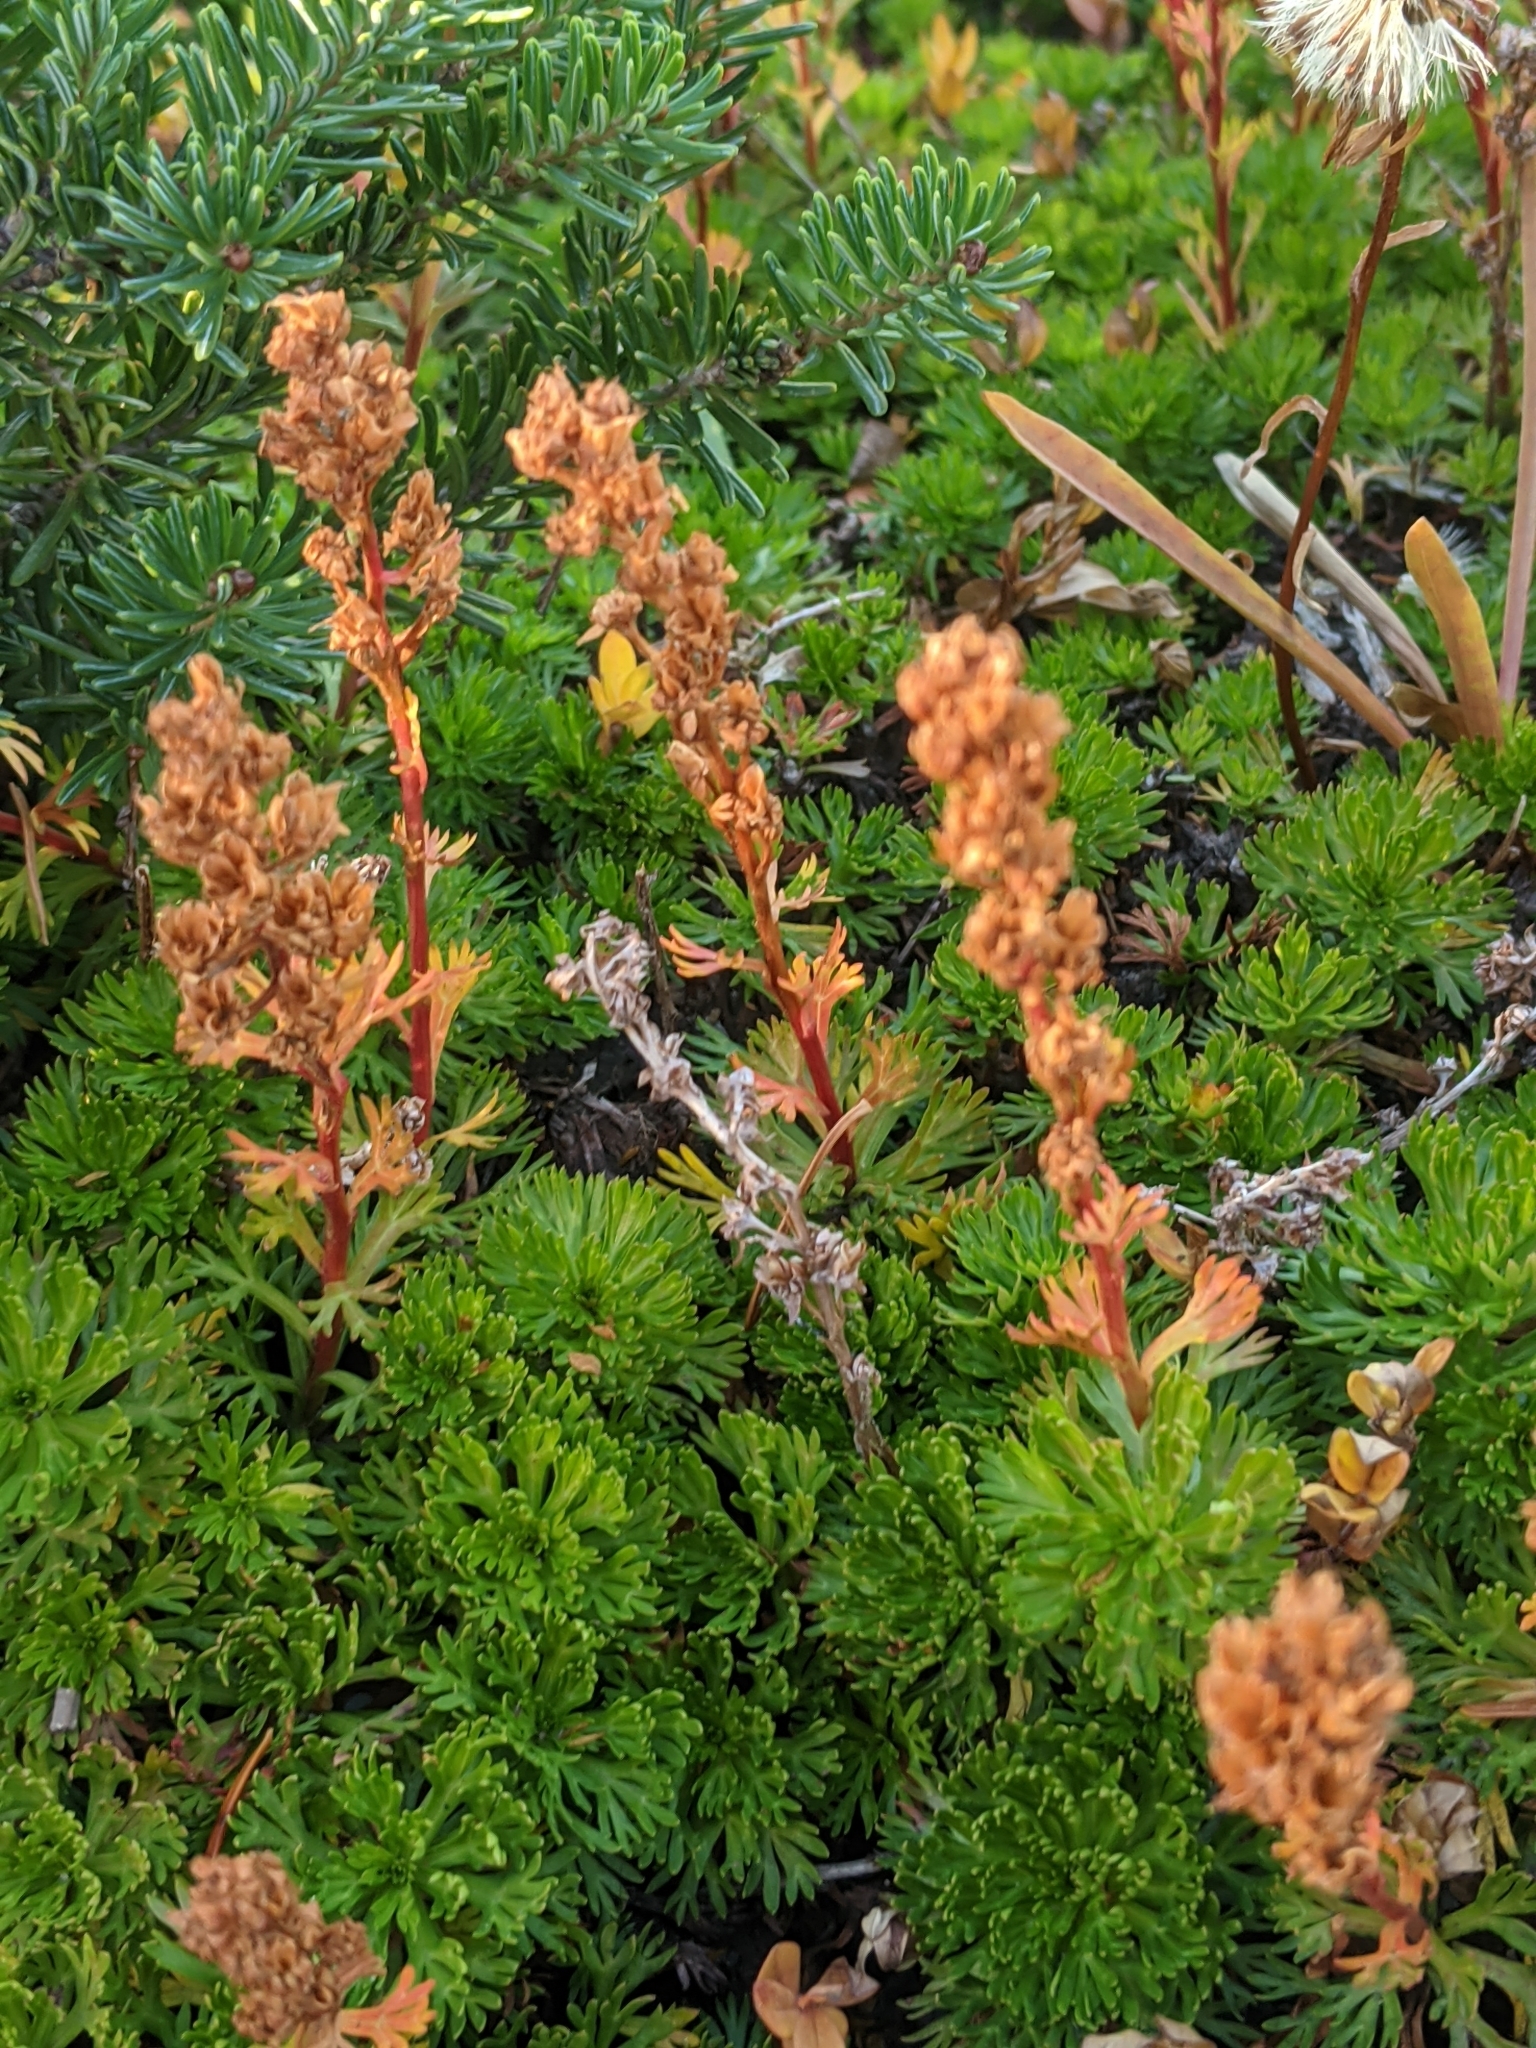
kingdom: Plantae
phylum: Tracheophyta
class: Magnoliopsida
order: Rosales
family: Rosaceae
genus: Luetkea
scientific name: Luetkea pectinata
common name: Partridgefoot
